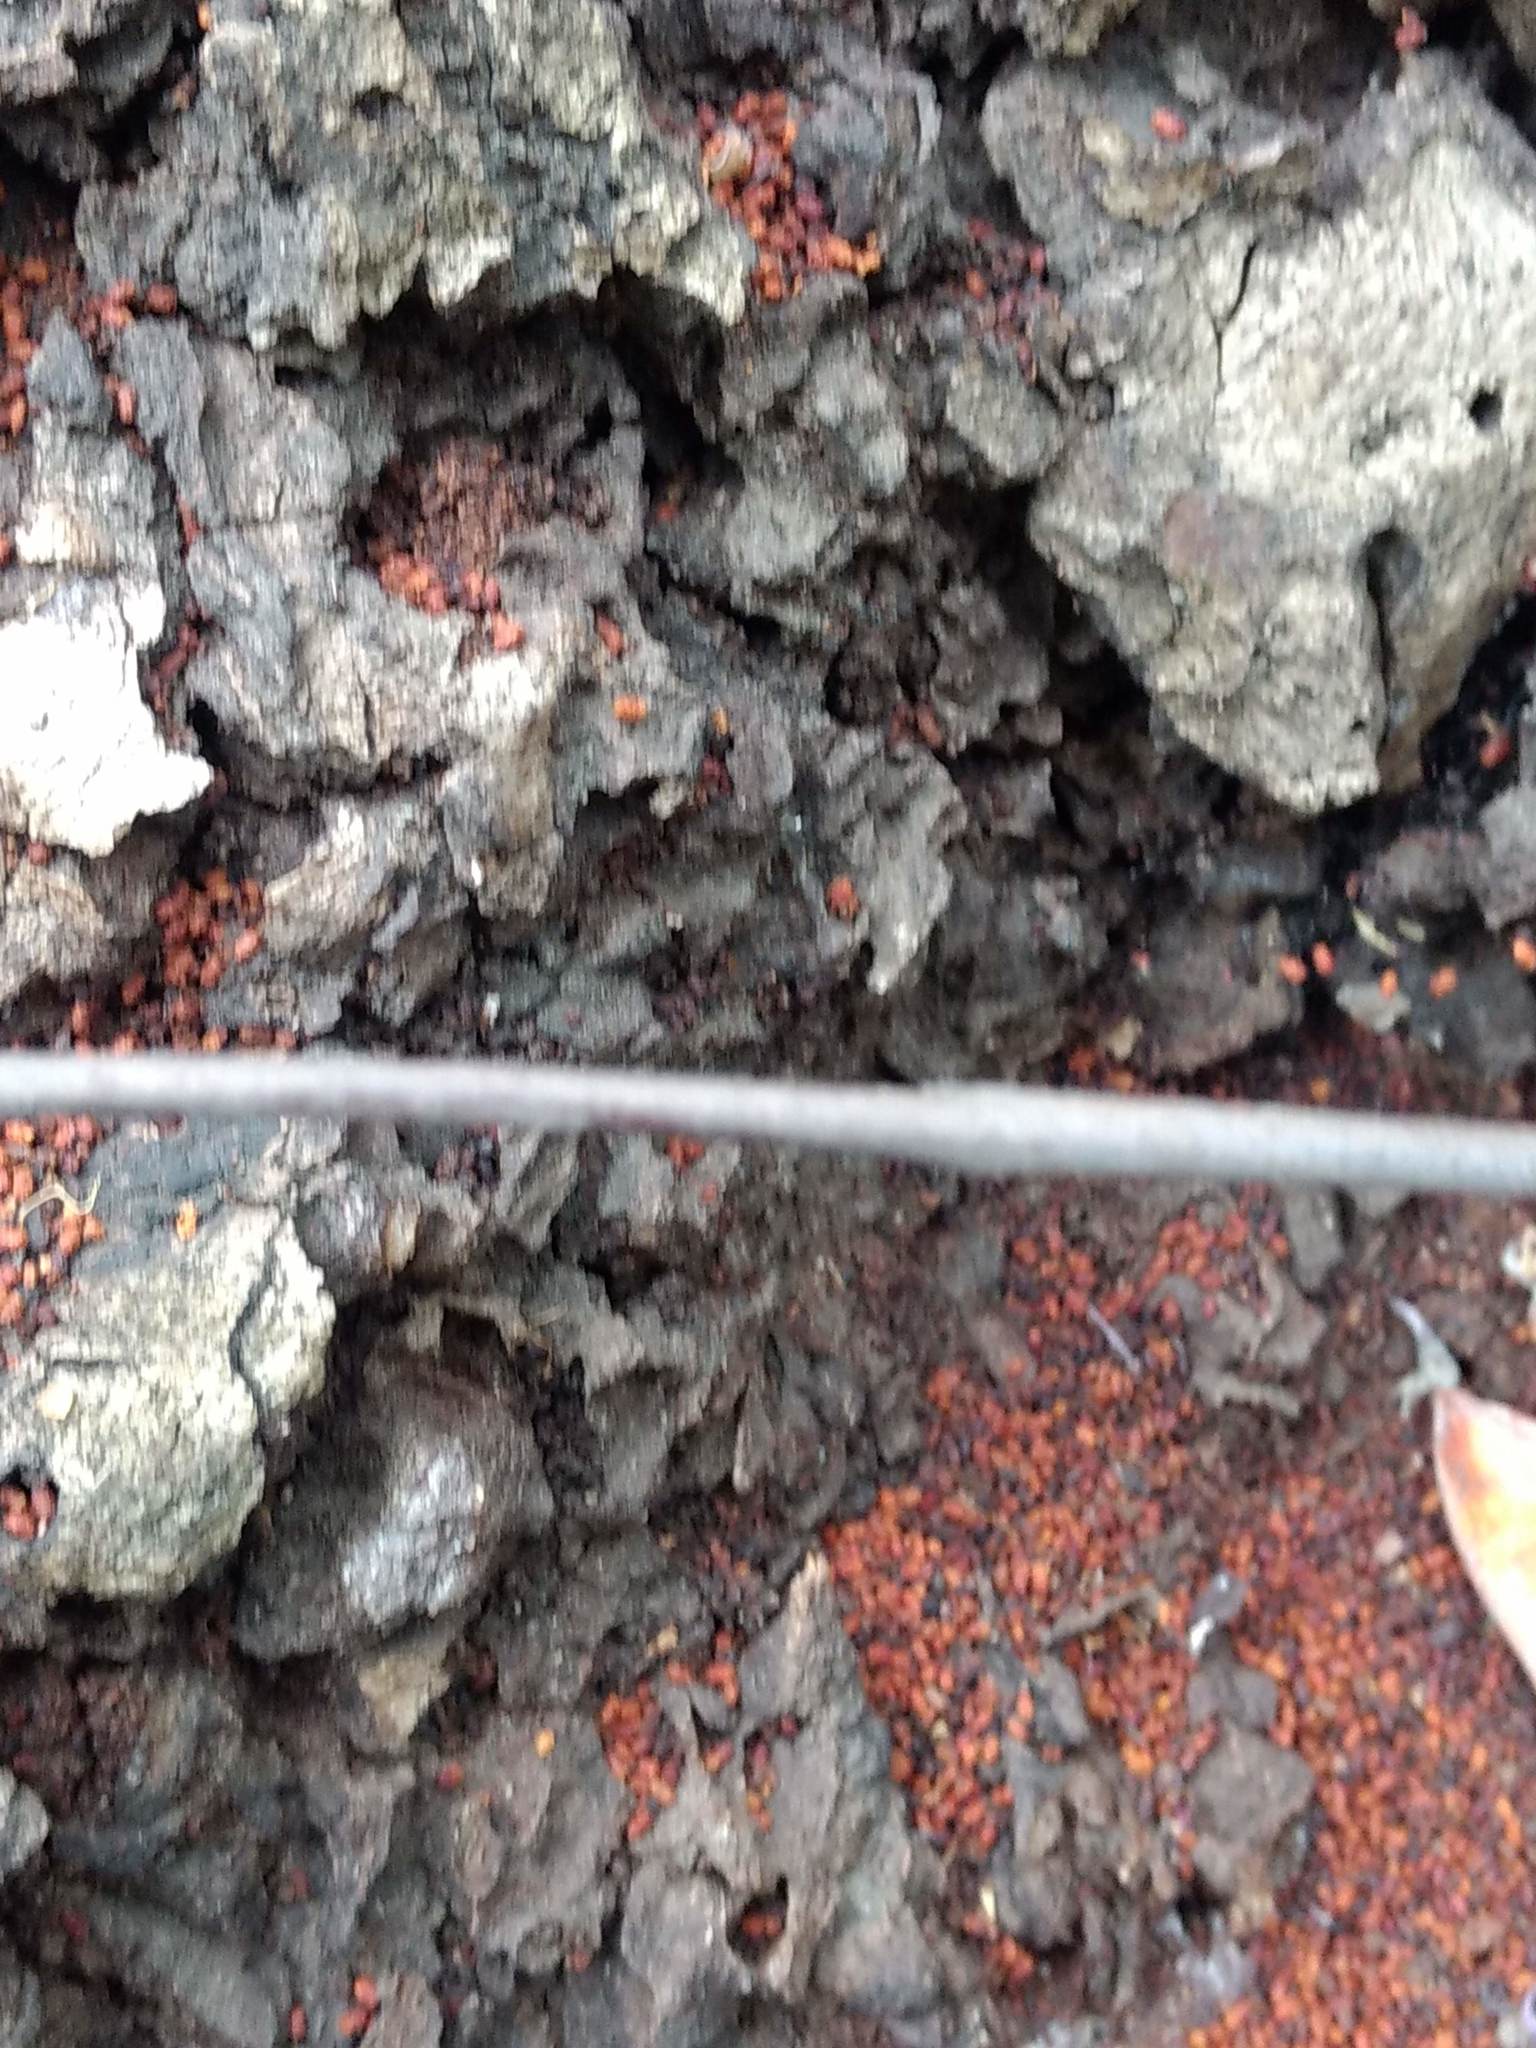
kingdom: Animalia
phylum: Arthropoda
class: Insecta
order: Lepidoptera
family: Sesiidae
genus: Synanthedon
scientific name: Synanthedon resplendens
